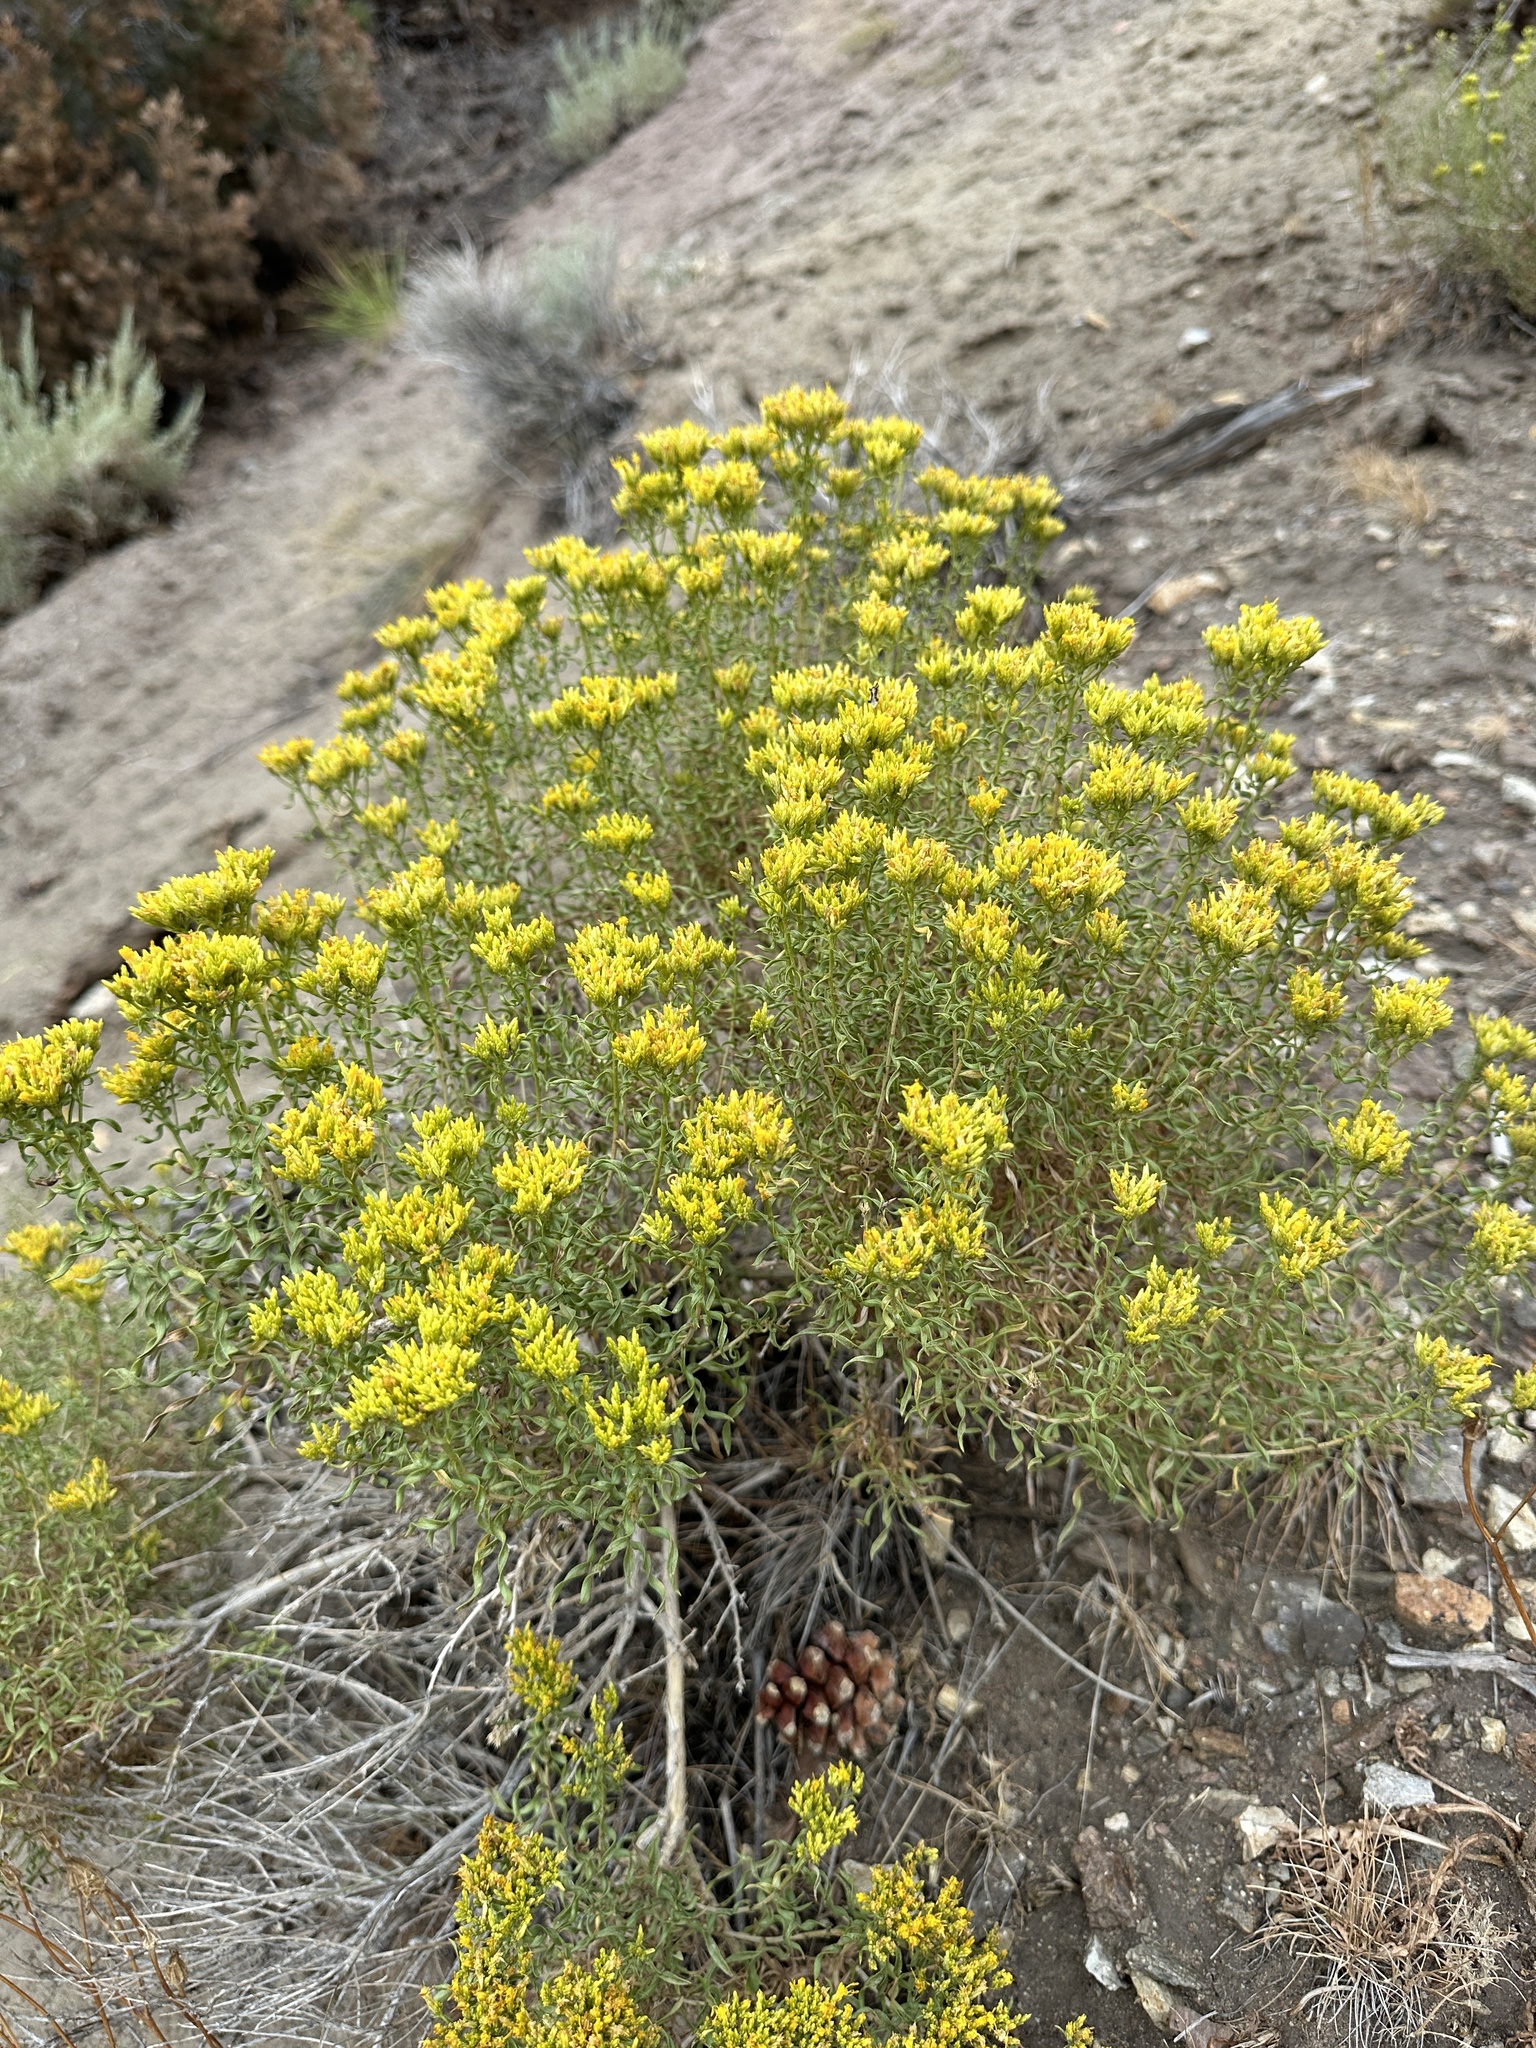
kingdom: Plantae
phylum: Tracheophyta
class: Magnoliopsida
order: Asterales
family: Asteraceae
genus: Chrysothamnus
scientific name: Chrysothamnus viscidiflorus
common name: Yellow rabbitbrush
